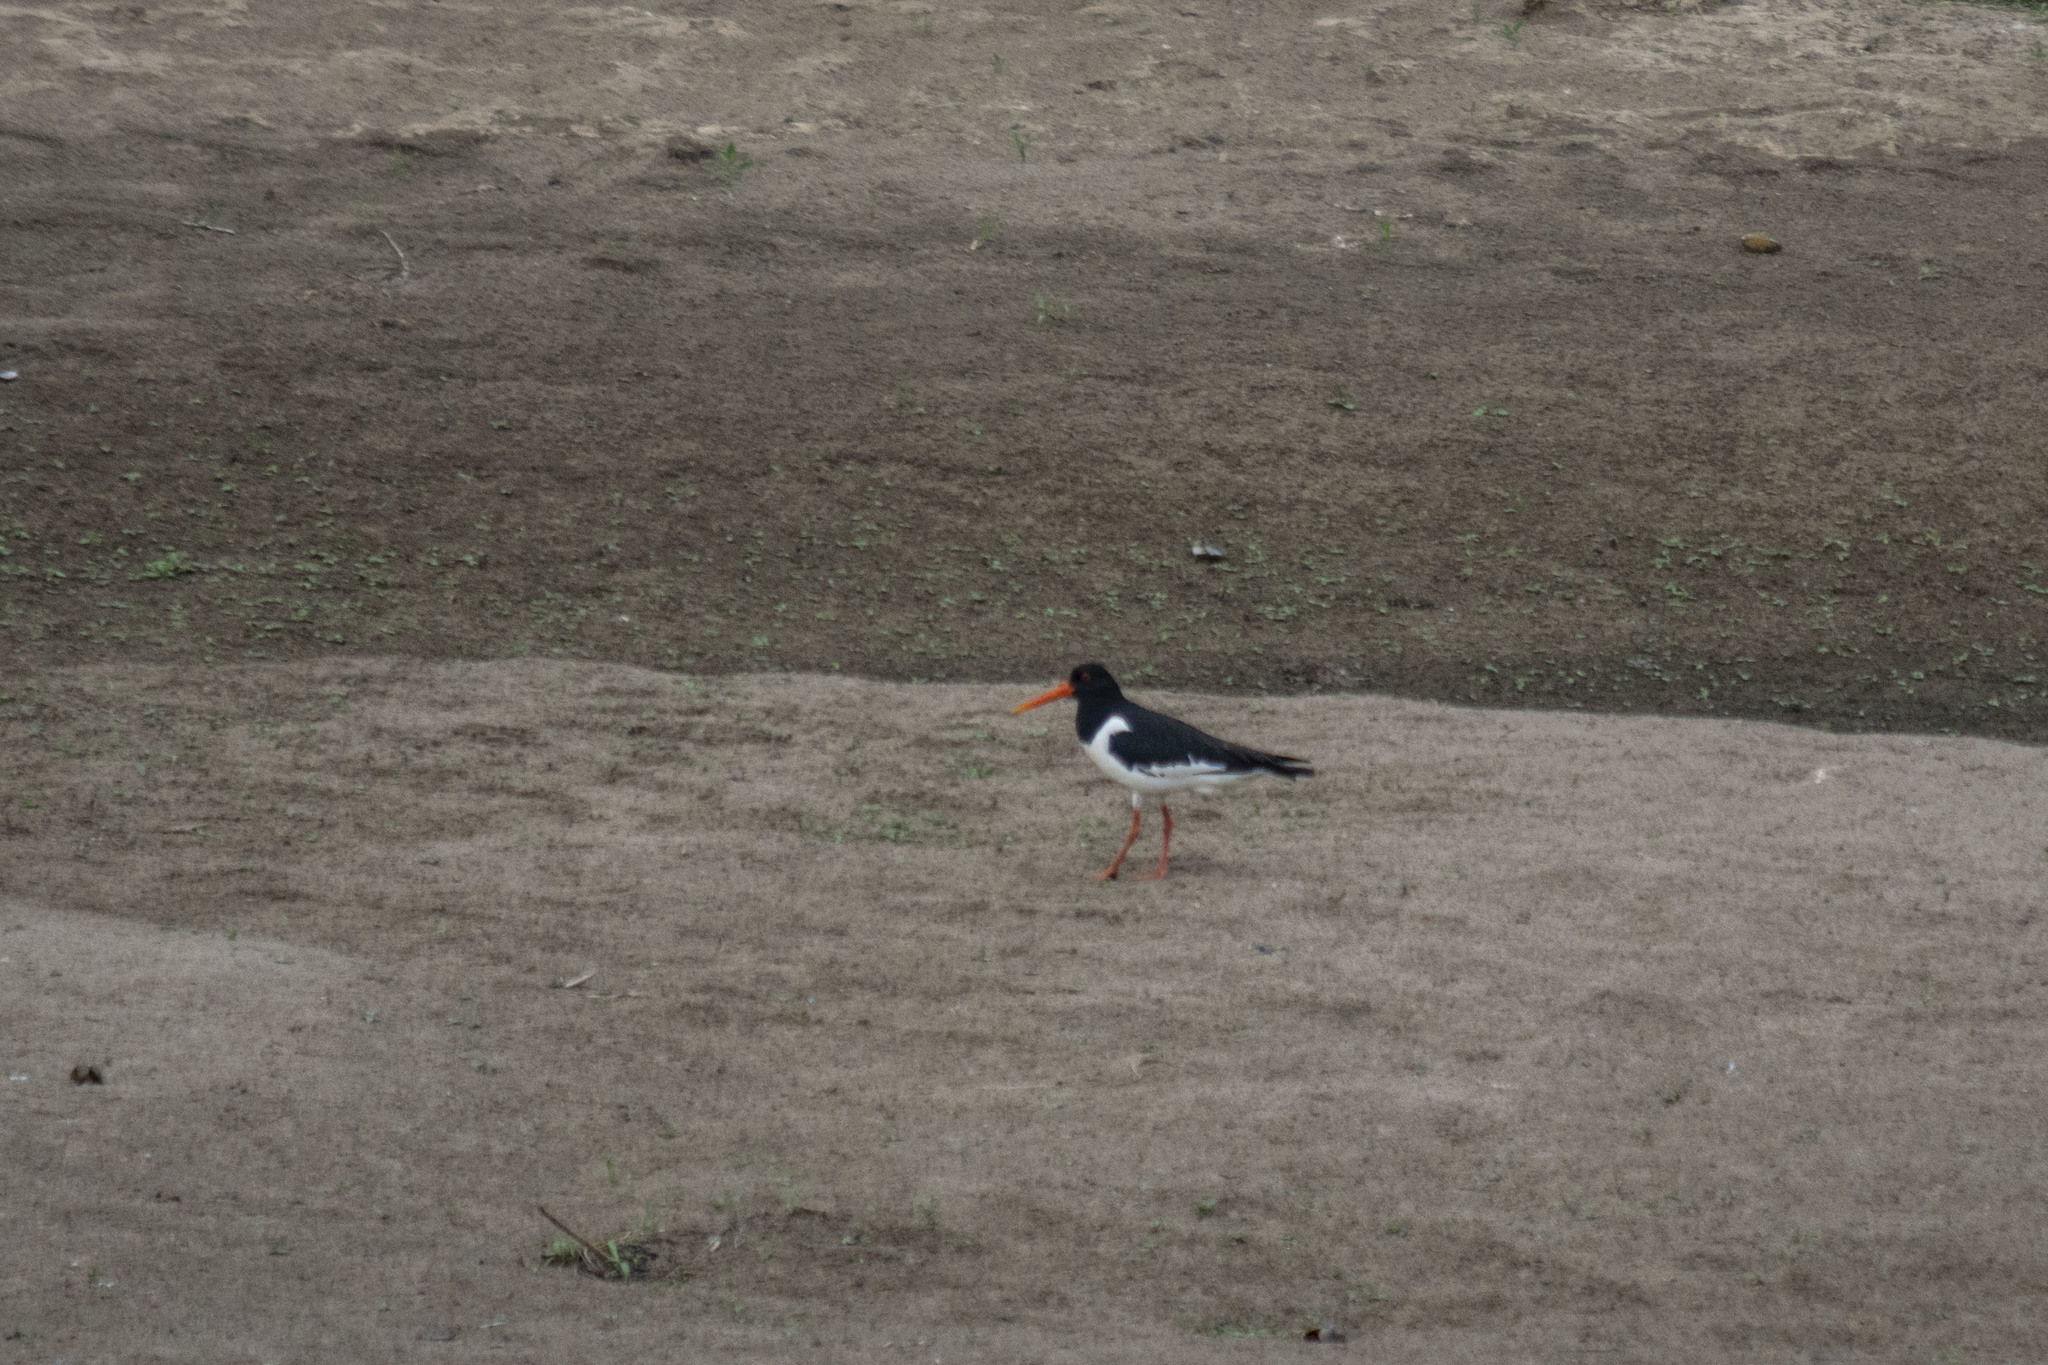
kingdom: Animalia
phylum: Chordata
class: Aves
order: Charadriiformes
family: Haematopodidae
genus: Haematopus
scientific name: Haematopus ostralegus
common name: Eurasian oystercatcher
